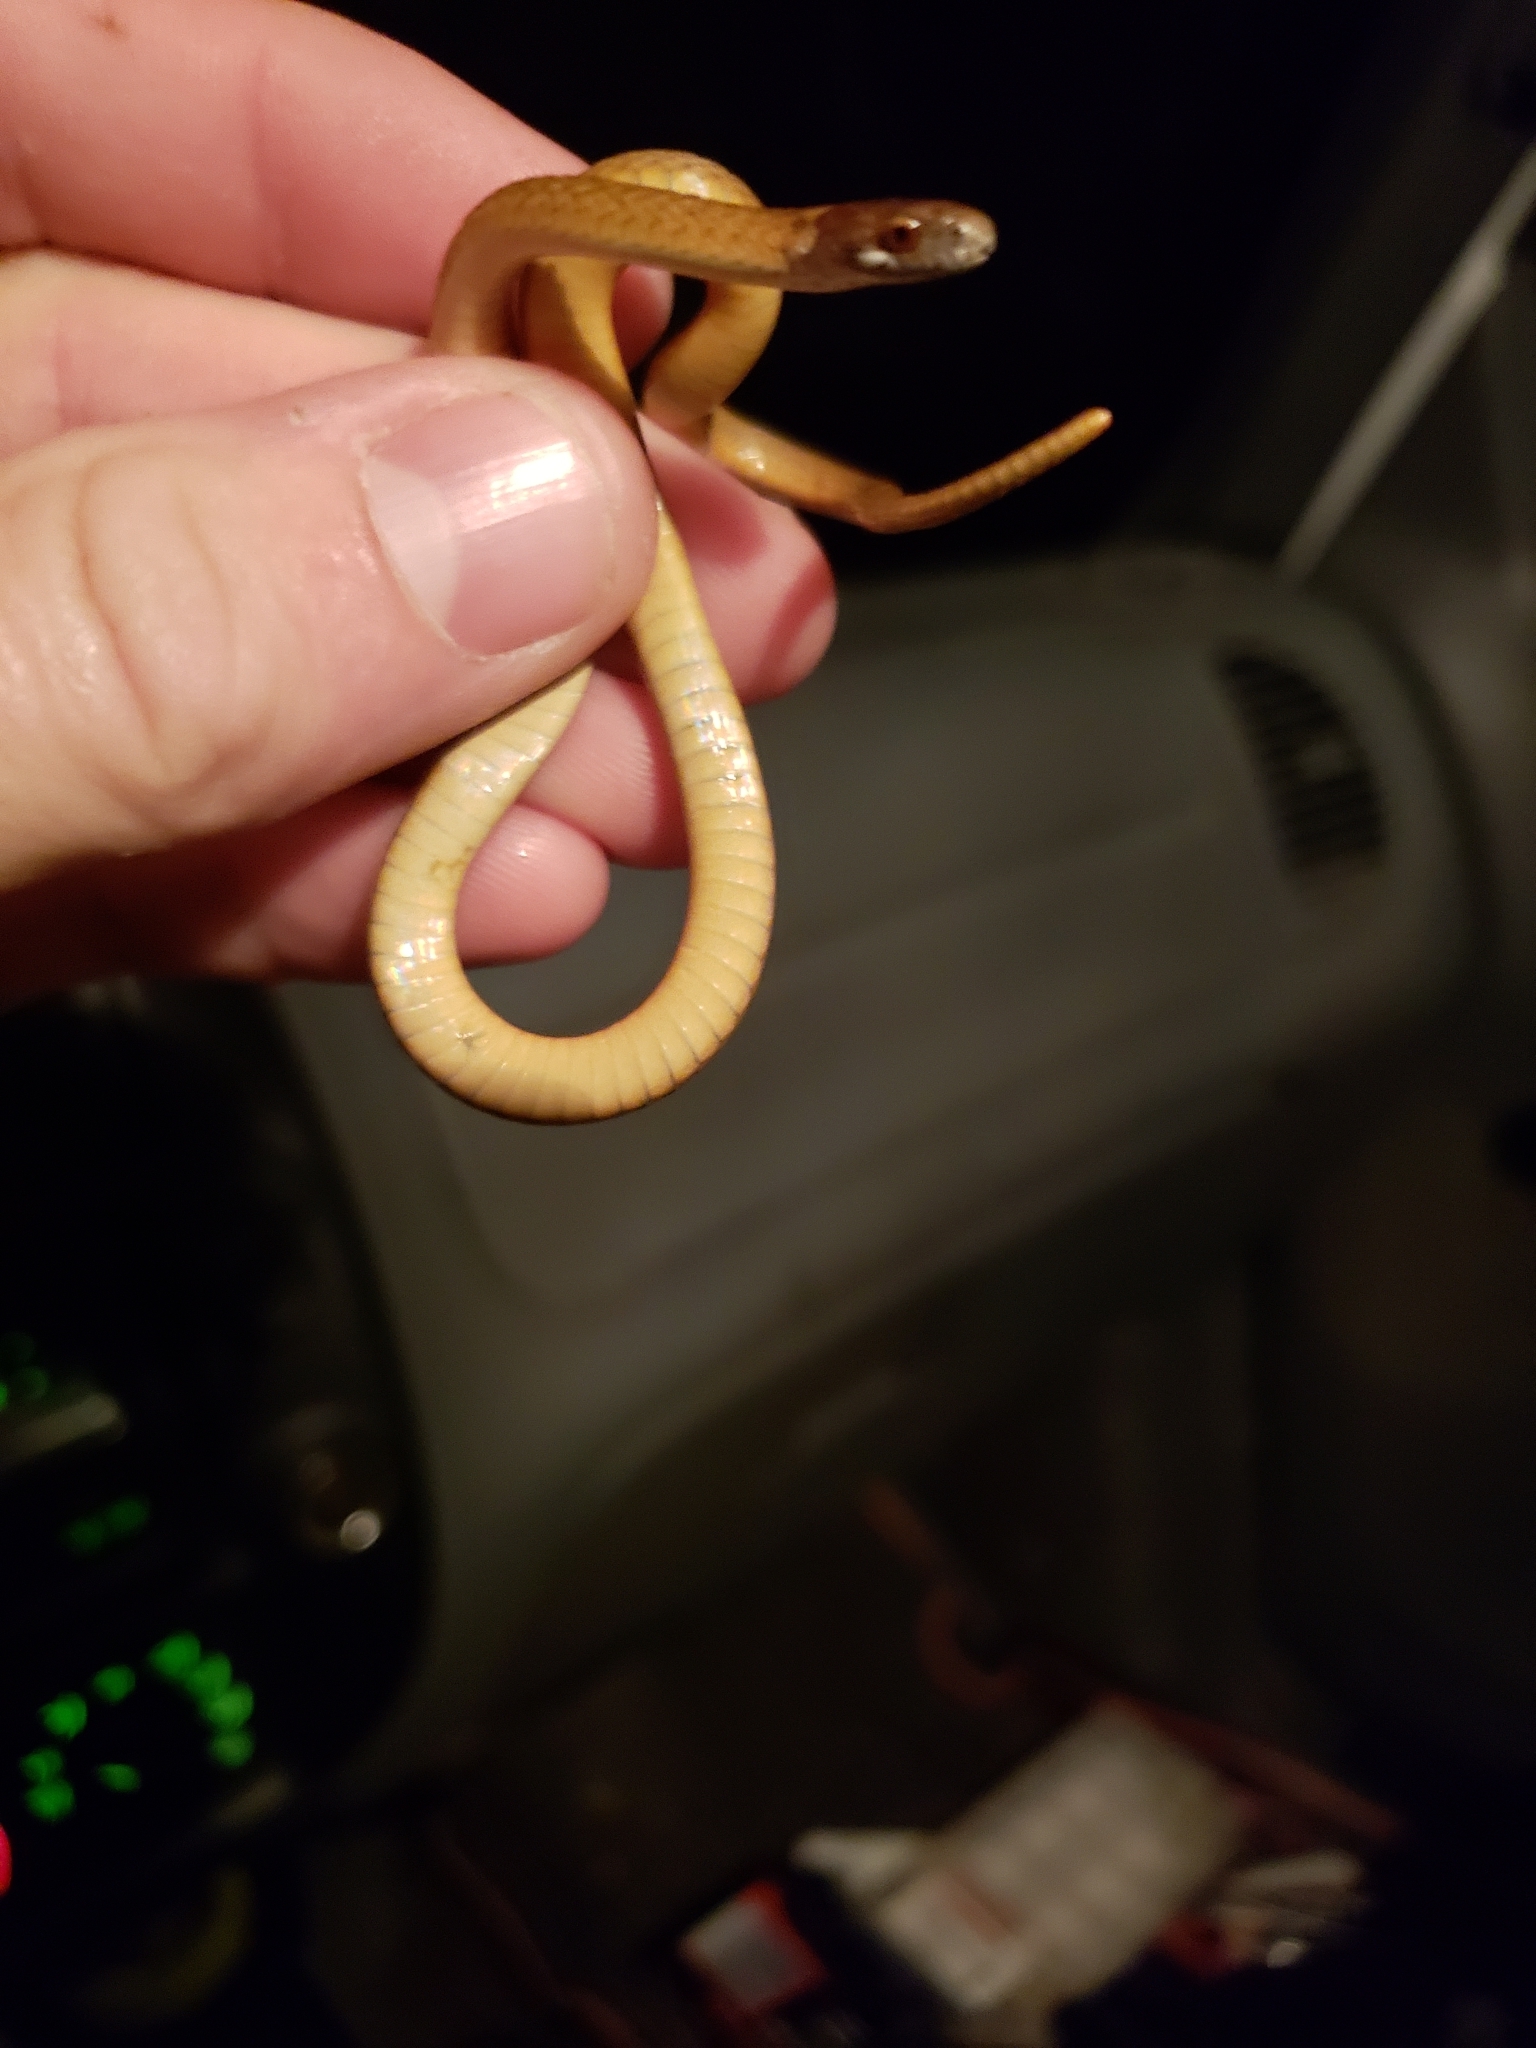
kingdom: Animalia
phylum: Chordata
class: Squamata
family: Colubridae
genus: Storeria
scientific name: Storeria occipitomaculata
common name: Redbelly snake
